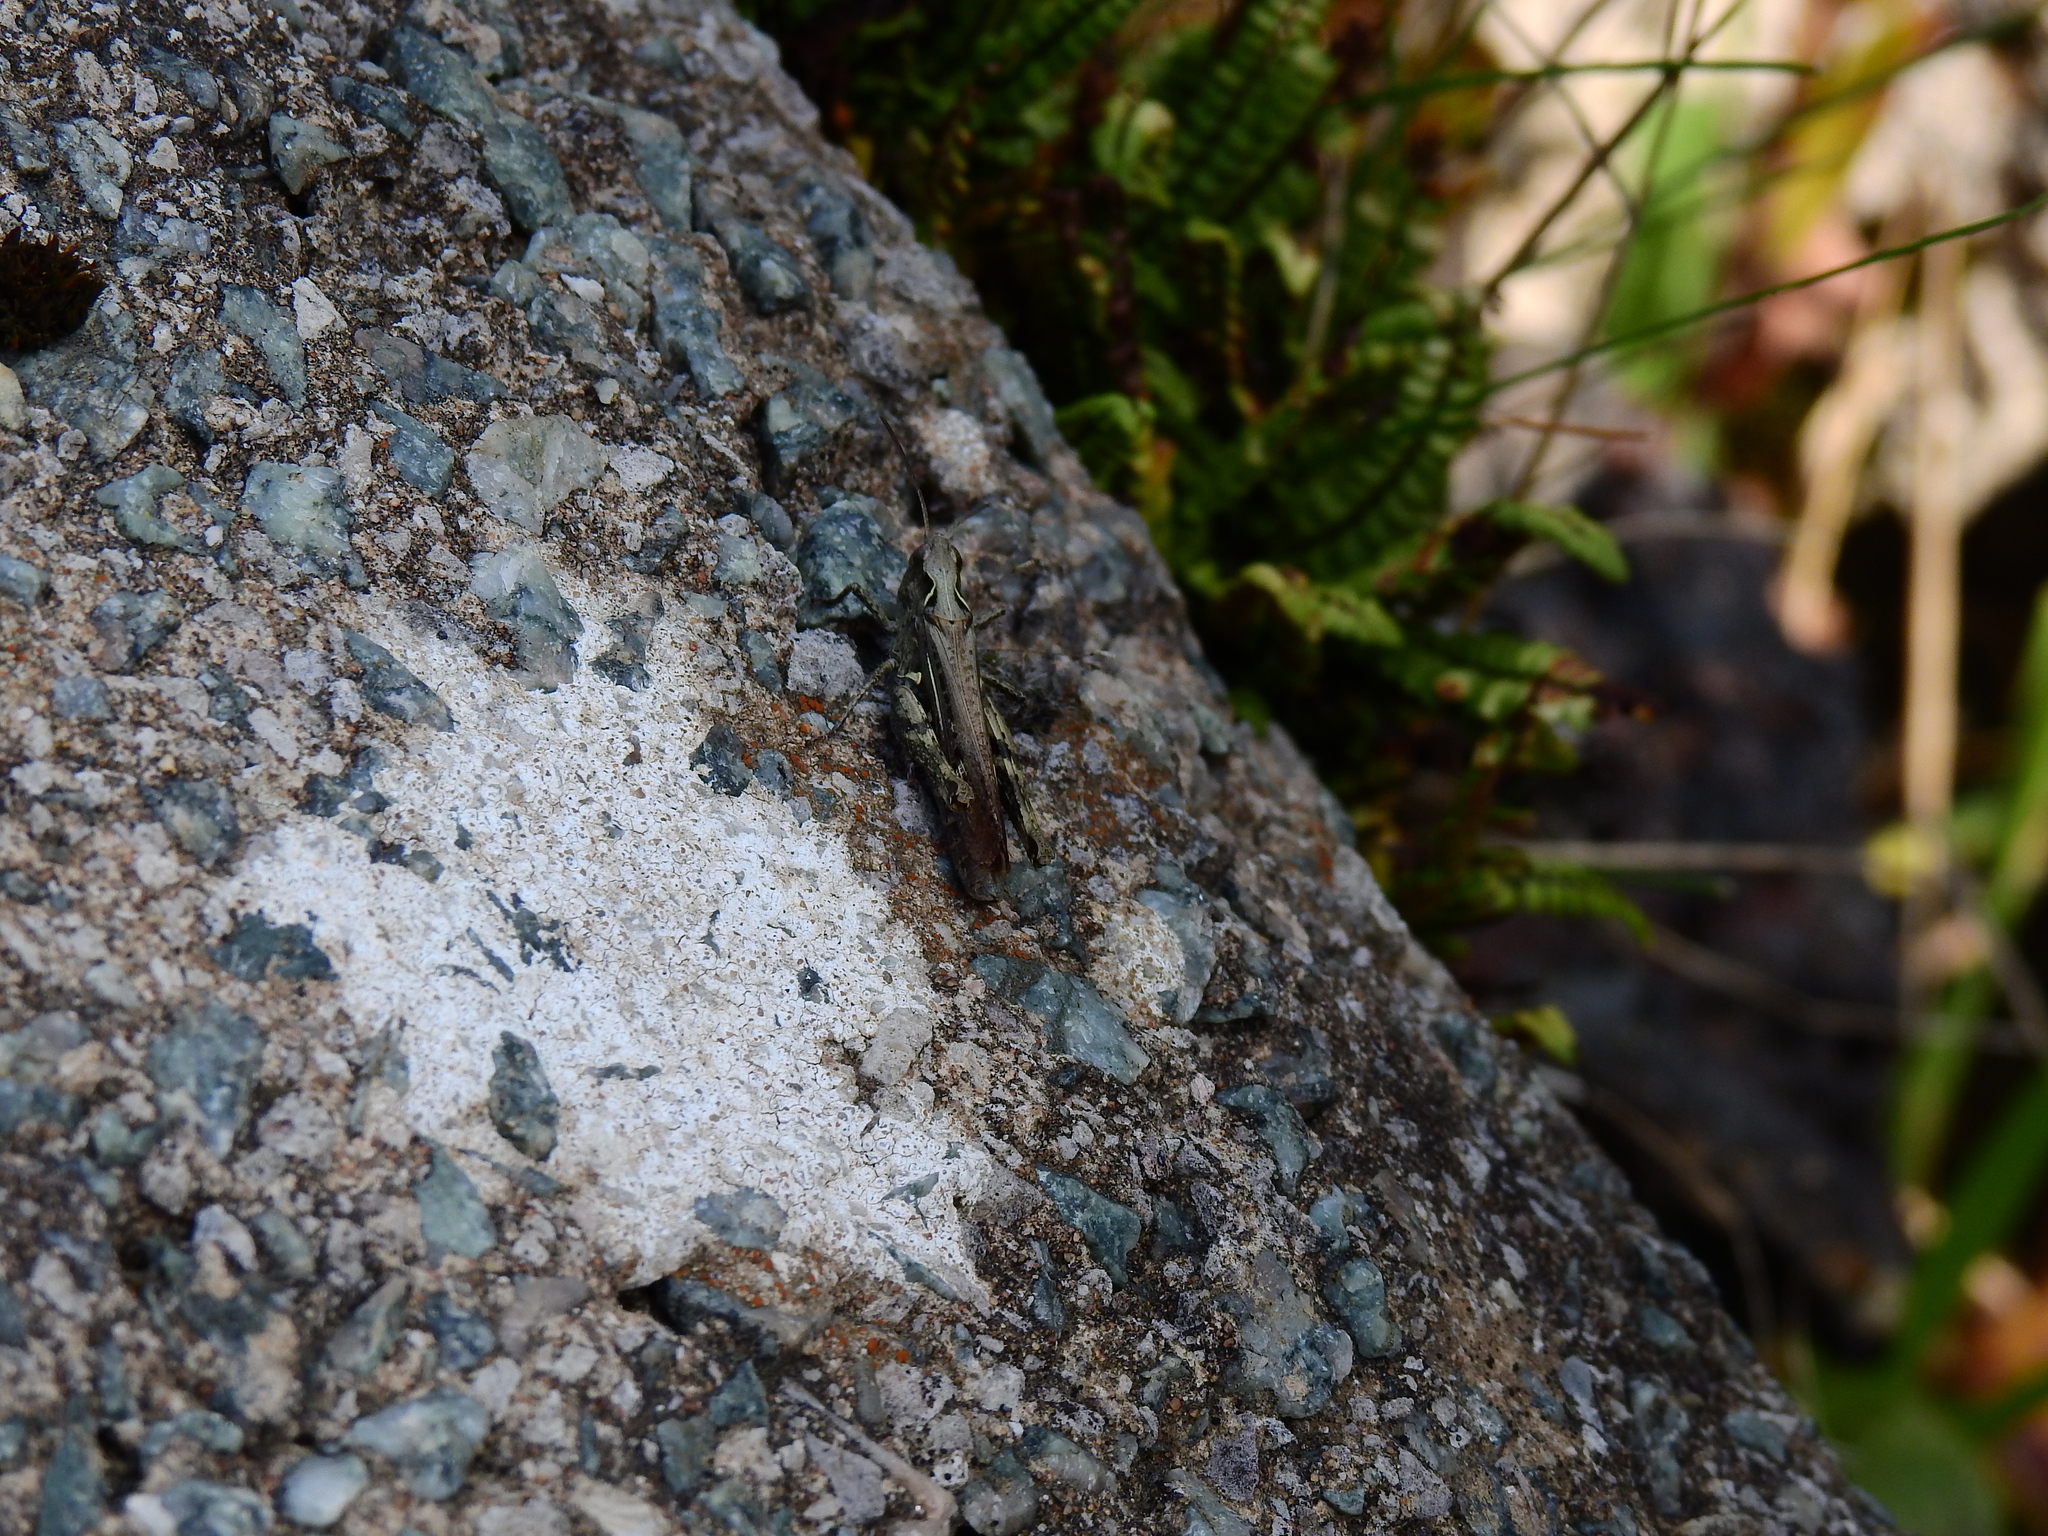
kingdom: Animalia
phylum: Arthropoda
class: Insecta
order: Orthoptera
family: Acrididae
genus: Chorthippus
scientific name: Chorthippus brunneus
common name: Field grasshopper
